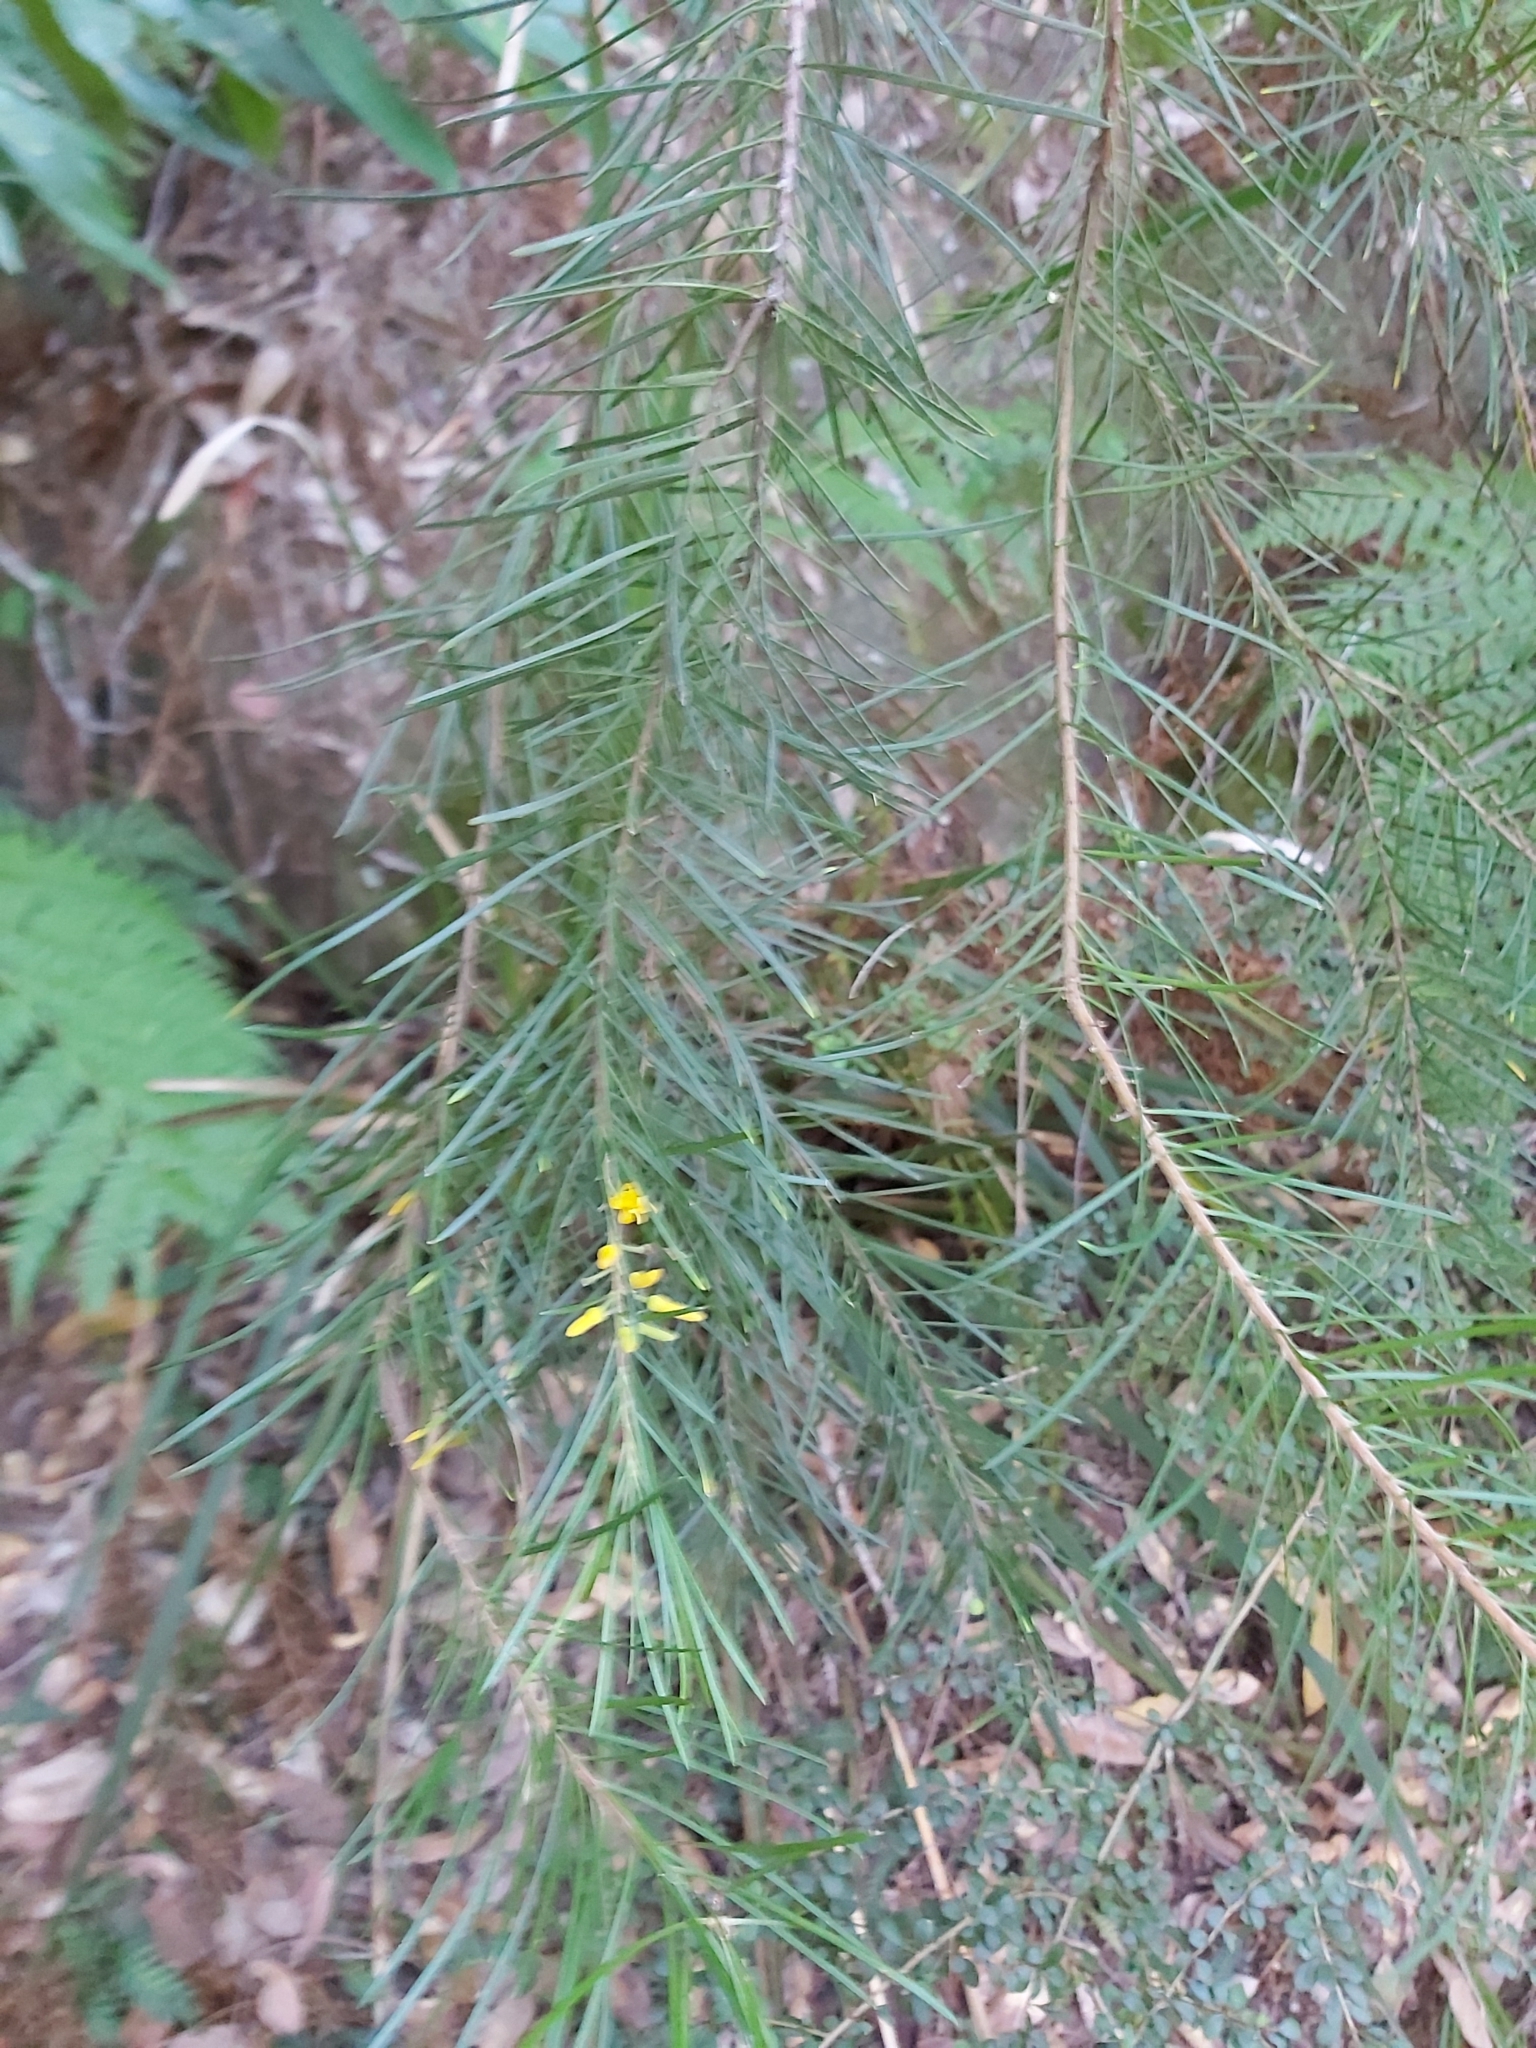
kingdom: Plantae
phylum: Tracheophyta
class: Magnoliopsida
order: Proteales
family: Proteaceae
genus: Persoonia
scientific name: Persoonia linearis
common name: Narrow-leaf geebung
